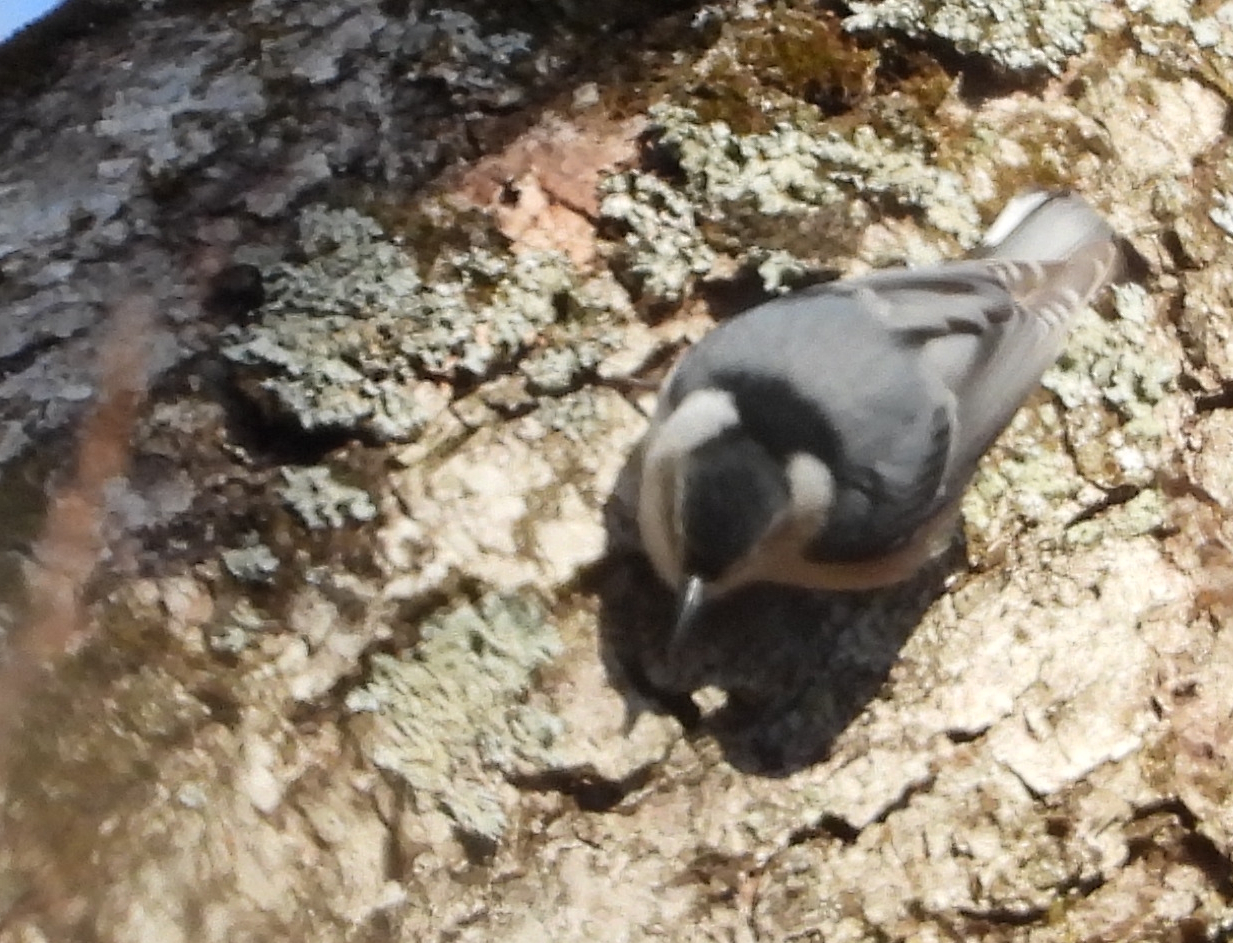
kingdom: Animalia
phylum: Chordata
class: Aves
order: Passeriformes
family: Sittidae
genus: Sitta
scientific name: Sitta carolinensis
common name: White-breasted nuthatch
